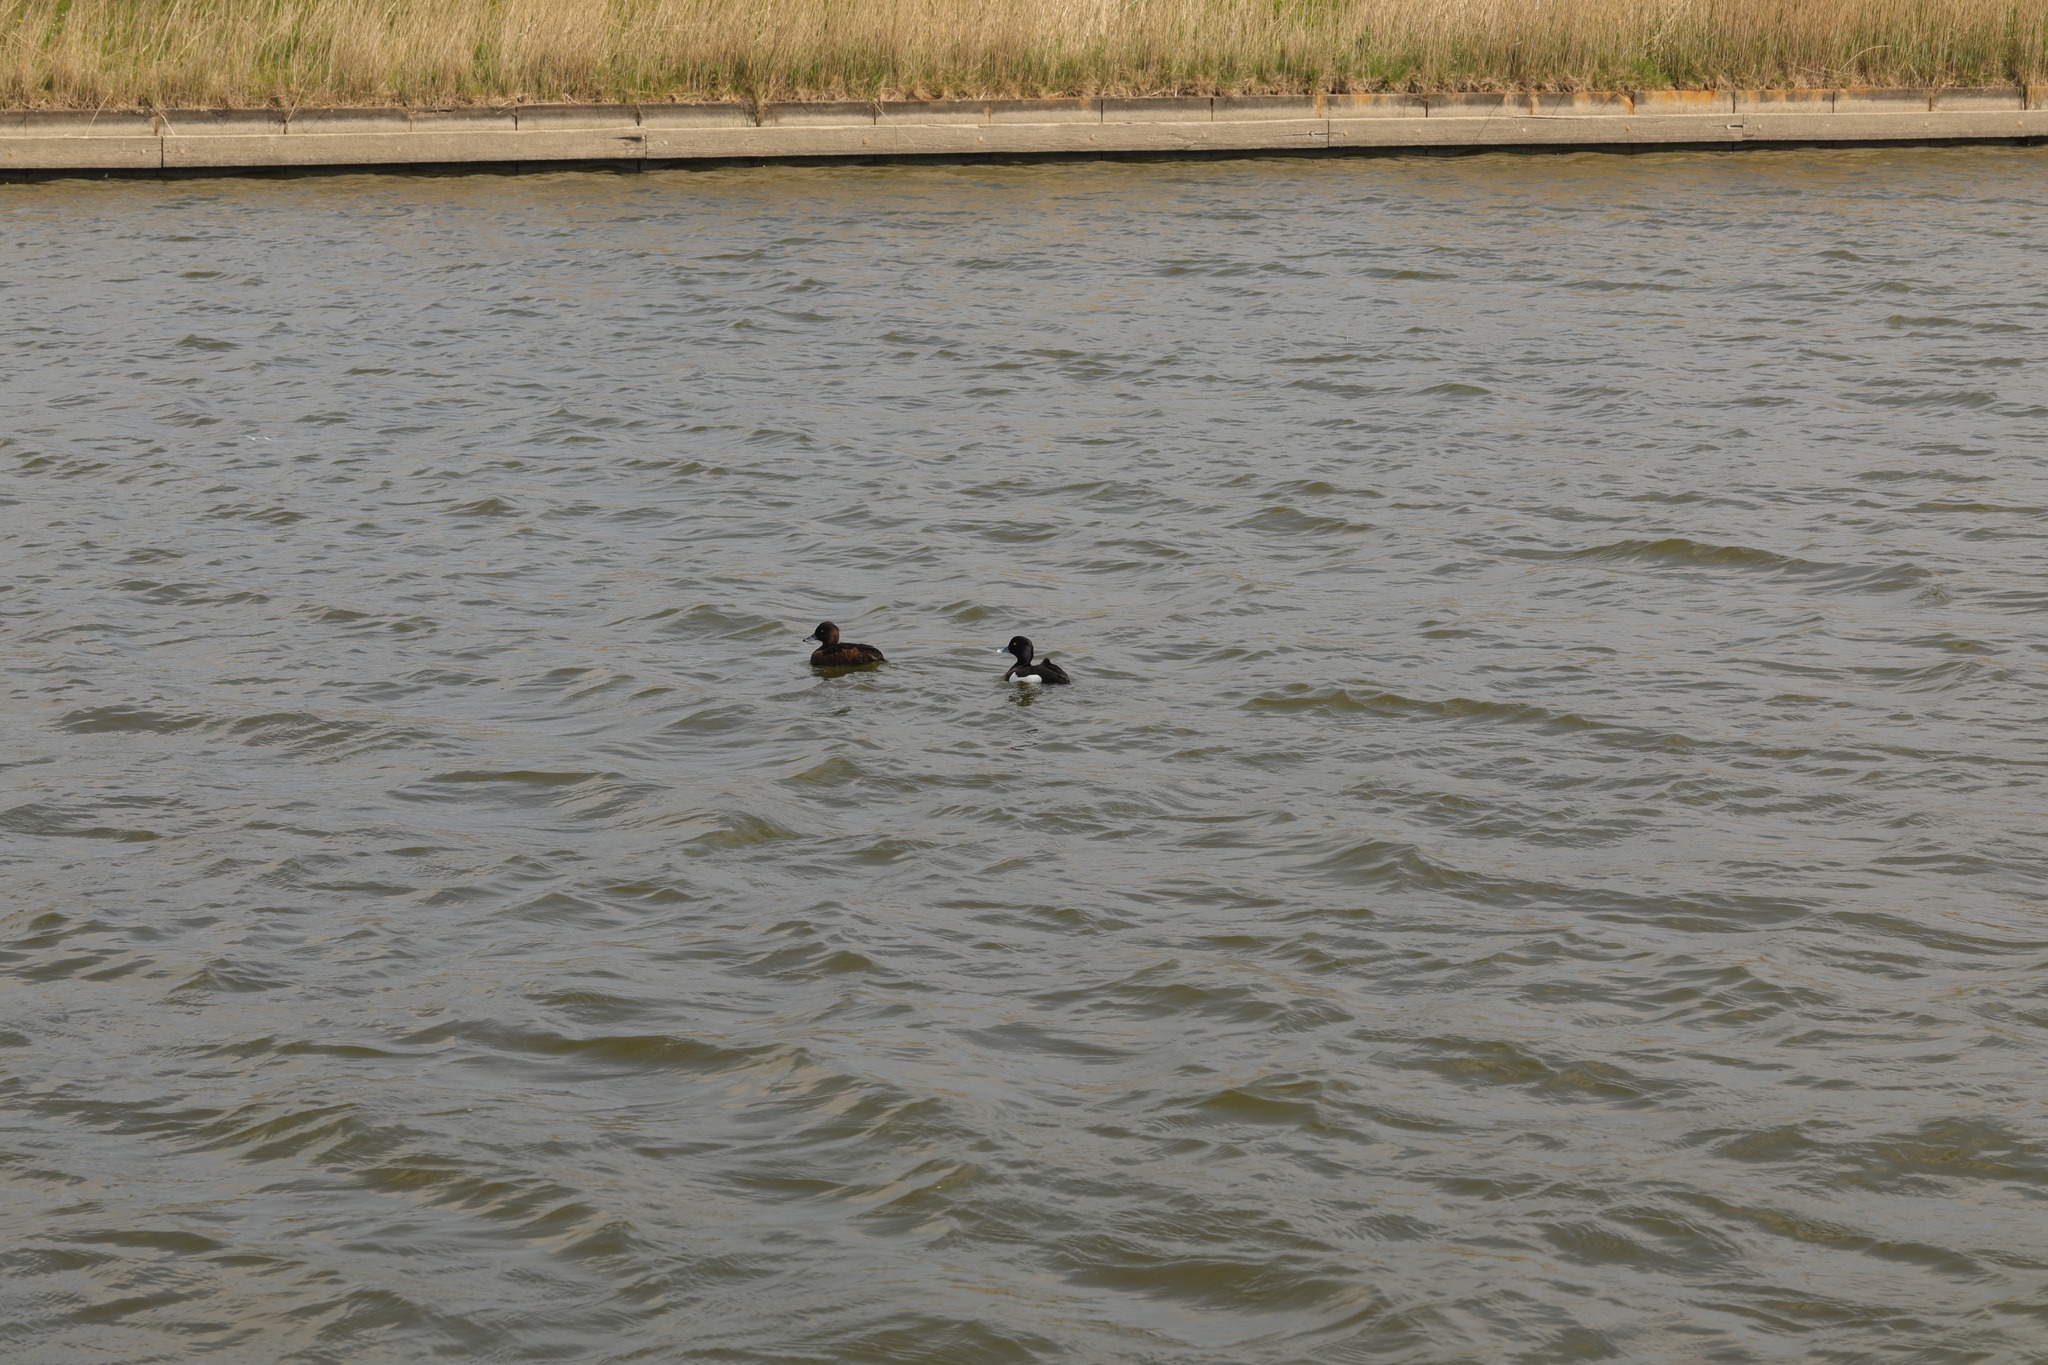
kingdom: Animalia
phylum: Chordata
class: Aves
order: Anseriformes
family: Anatidae
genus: Aythya
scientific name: Aythya fuligula
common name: Tufted duck
